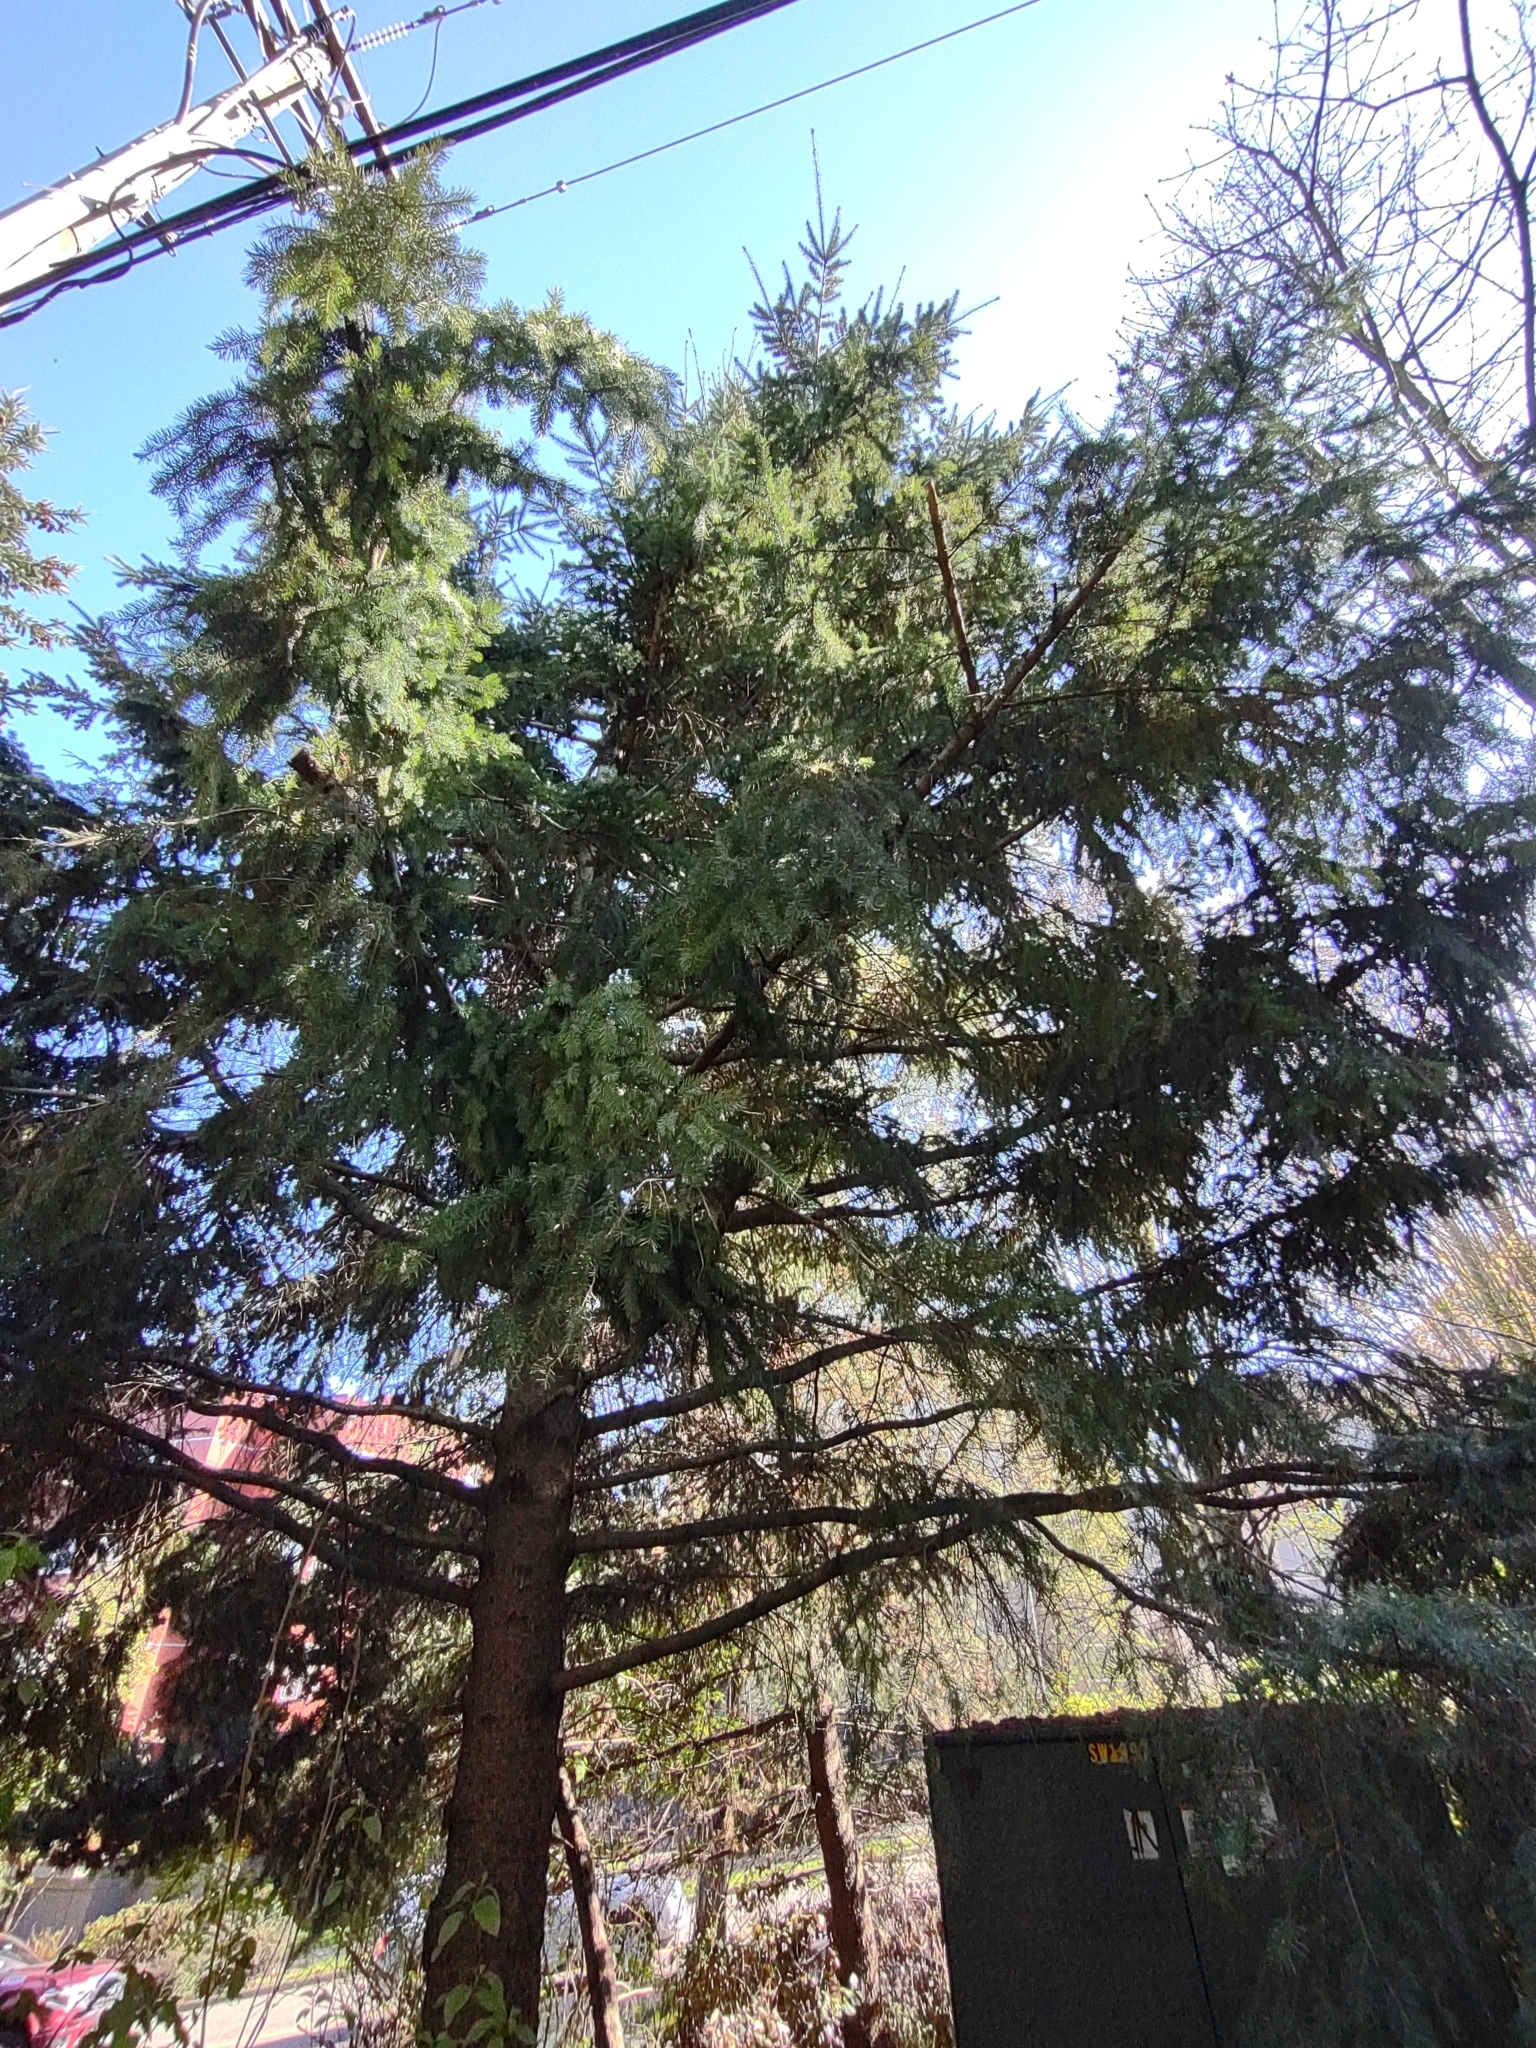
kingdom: Plantae
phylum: Tracheophyta
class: Pinopsida
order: Pinales
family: Pinaceae
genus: Pseudotsuga
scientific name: Pseudotsuga menziesii
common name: Douglas fir
